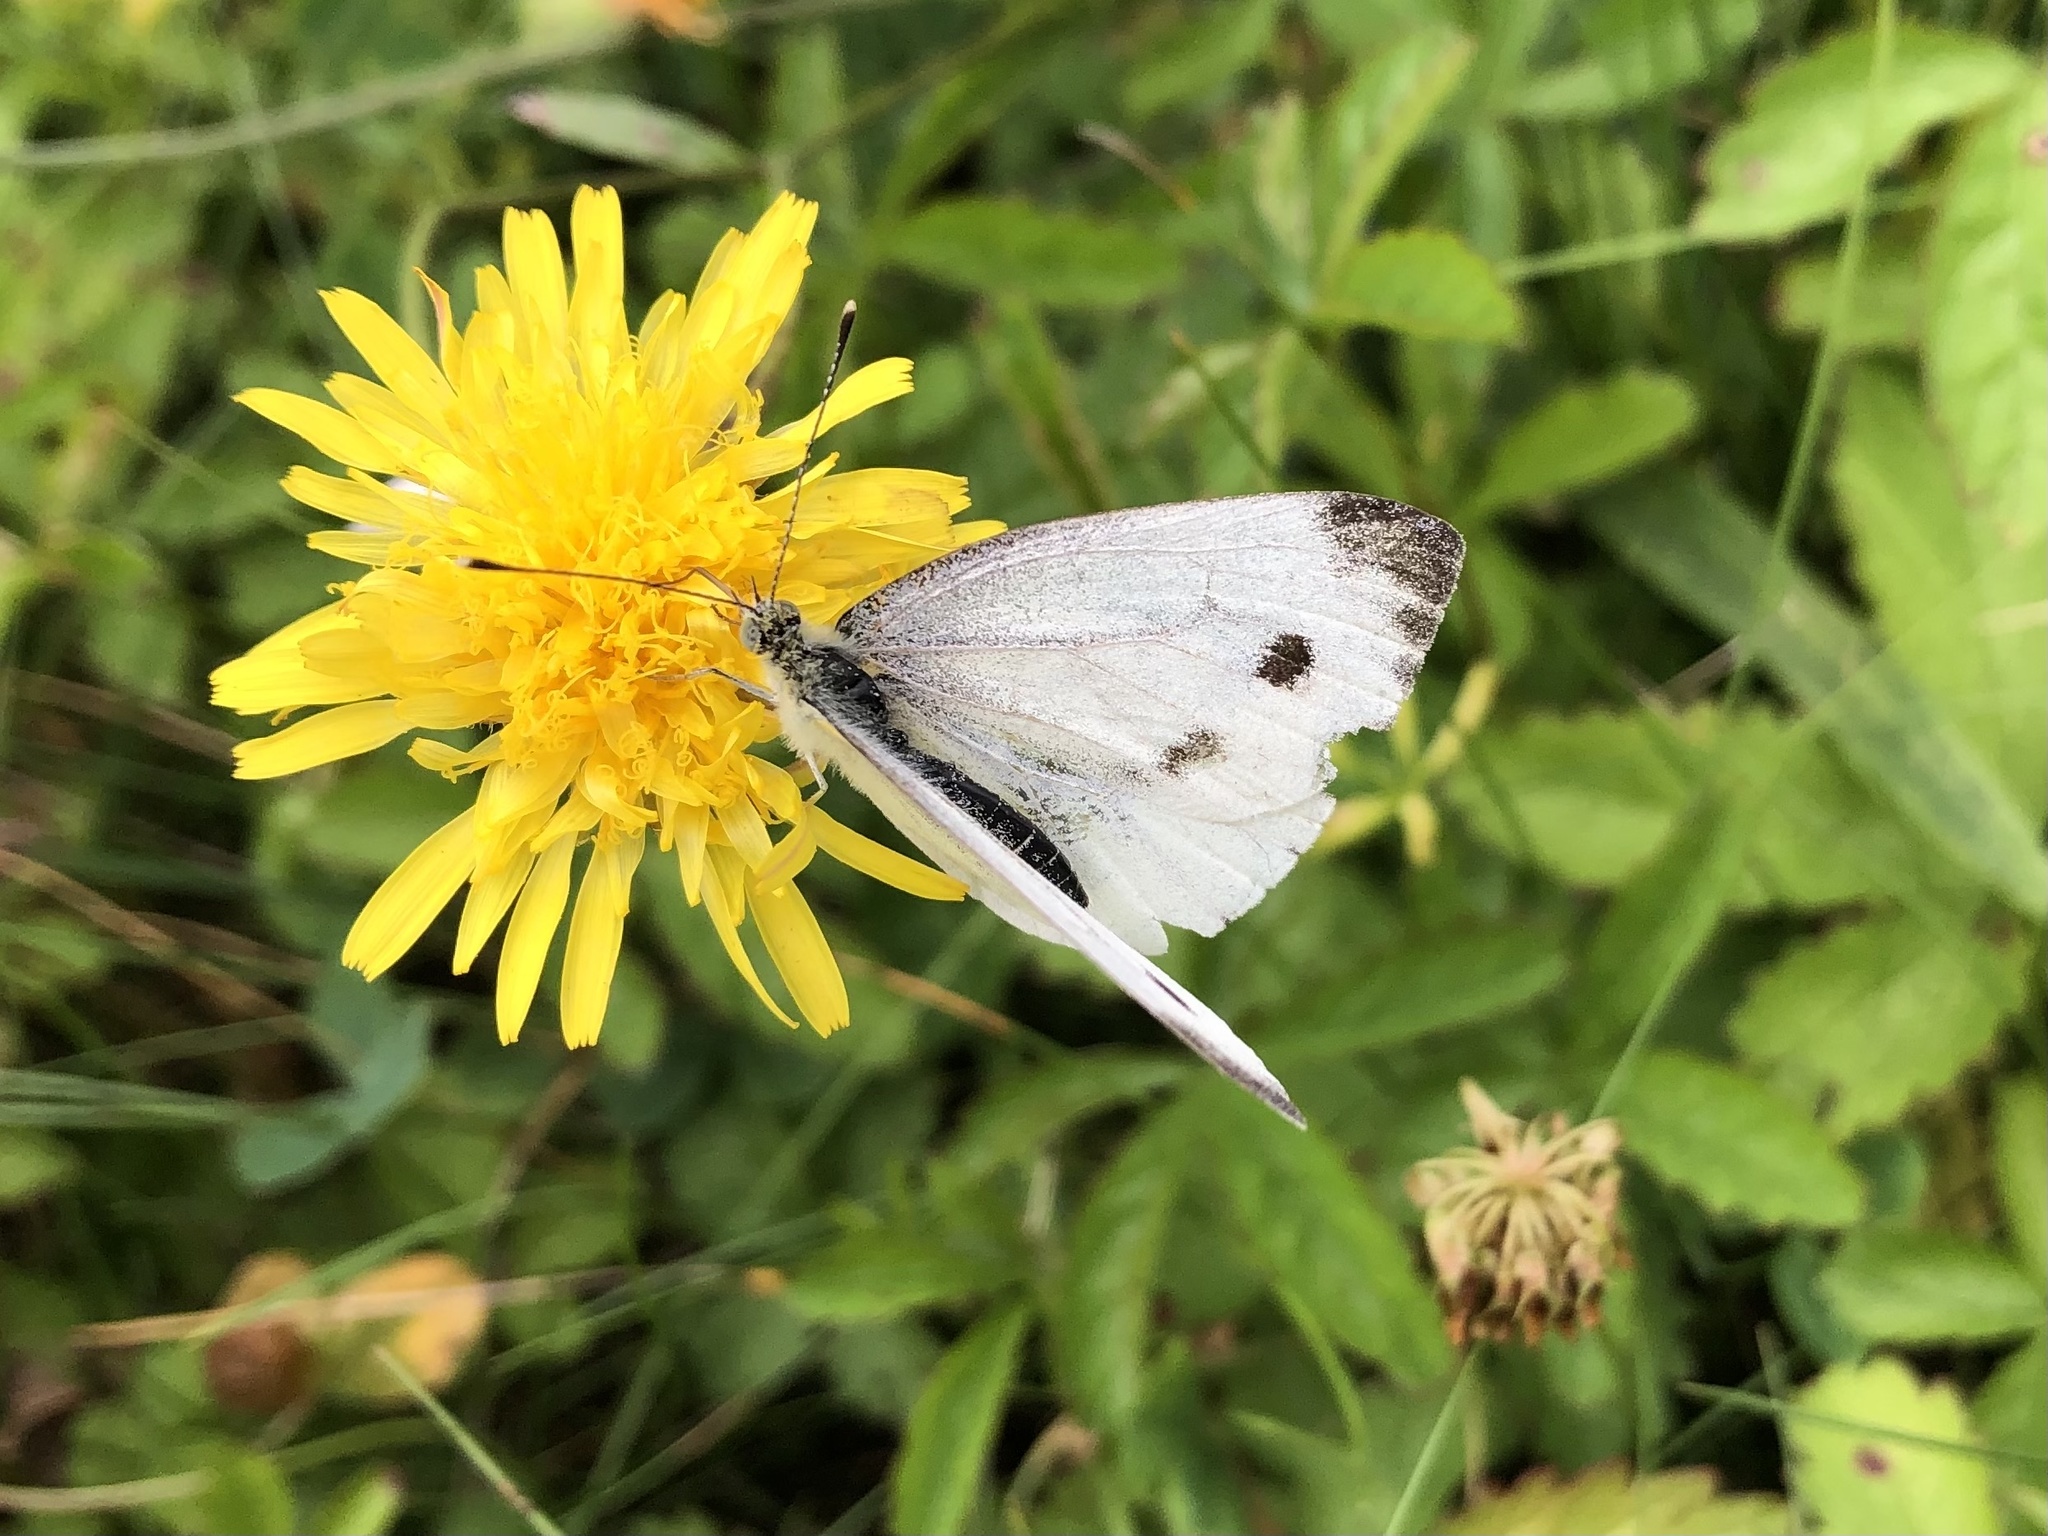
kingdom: Animalia
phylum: Arthropoda
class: Insecta
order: Lepidoptera
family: Pieridae
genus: Pieris
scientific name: Pieris napi
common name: Green-veined white
